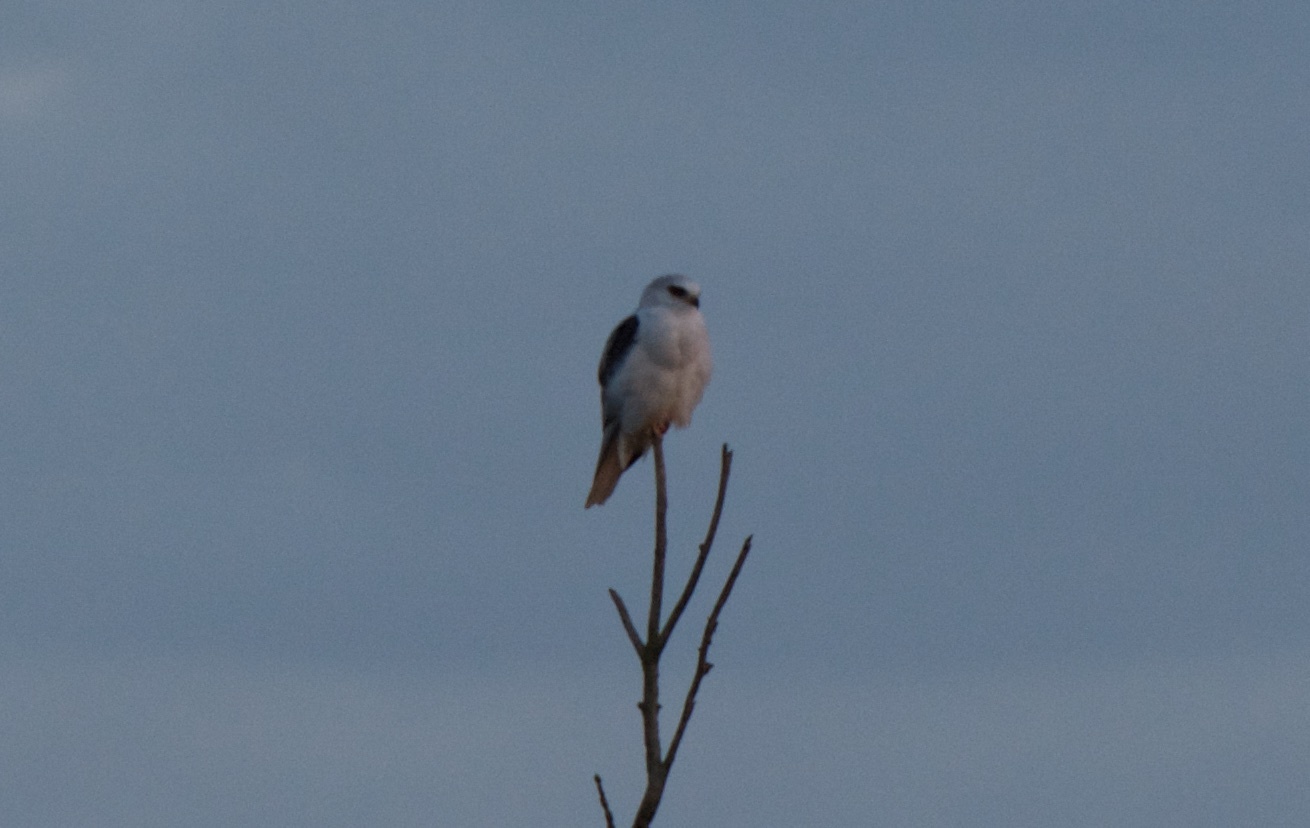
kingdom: Animalia
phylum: Chordata
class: Aves
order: Accipitriformes
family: Accipitridae
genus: Elanus
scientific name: Elanus leucurus
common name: White-tailed kite
